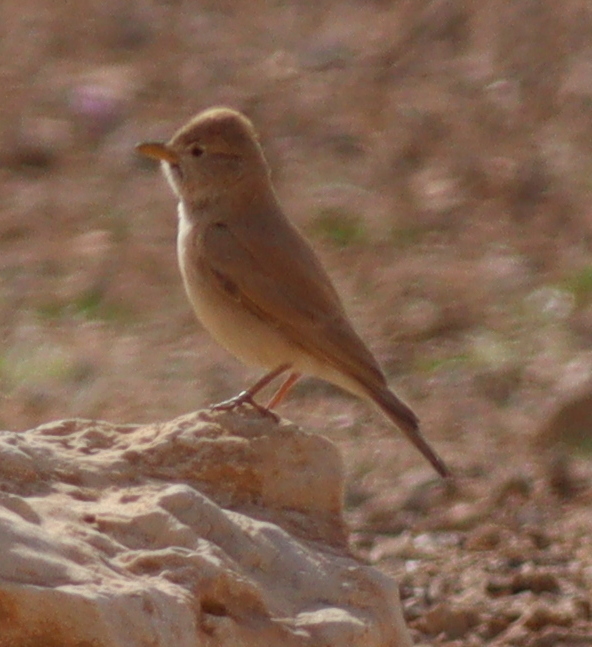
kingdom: Animalia
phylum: Chordata
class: Aves
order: Passeriformes
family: Alaudidae
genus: Ammomanes
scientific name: Ammomanes deserti
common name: Desert lark
